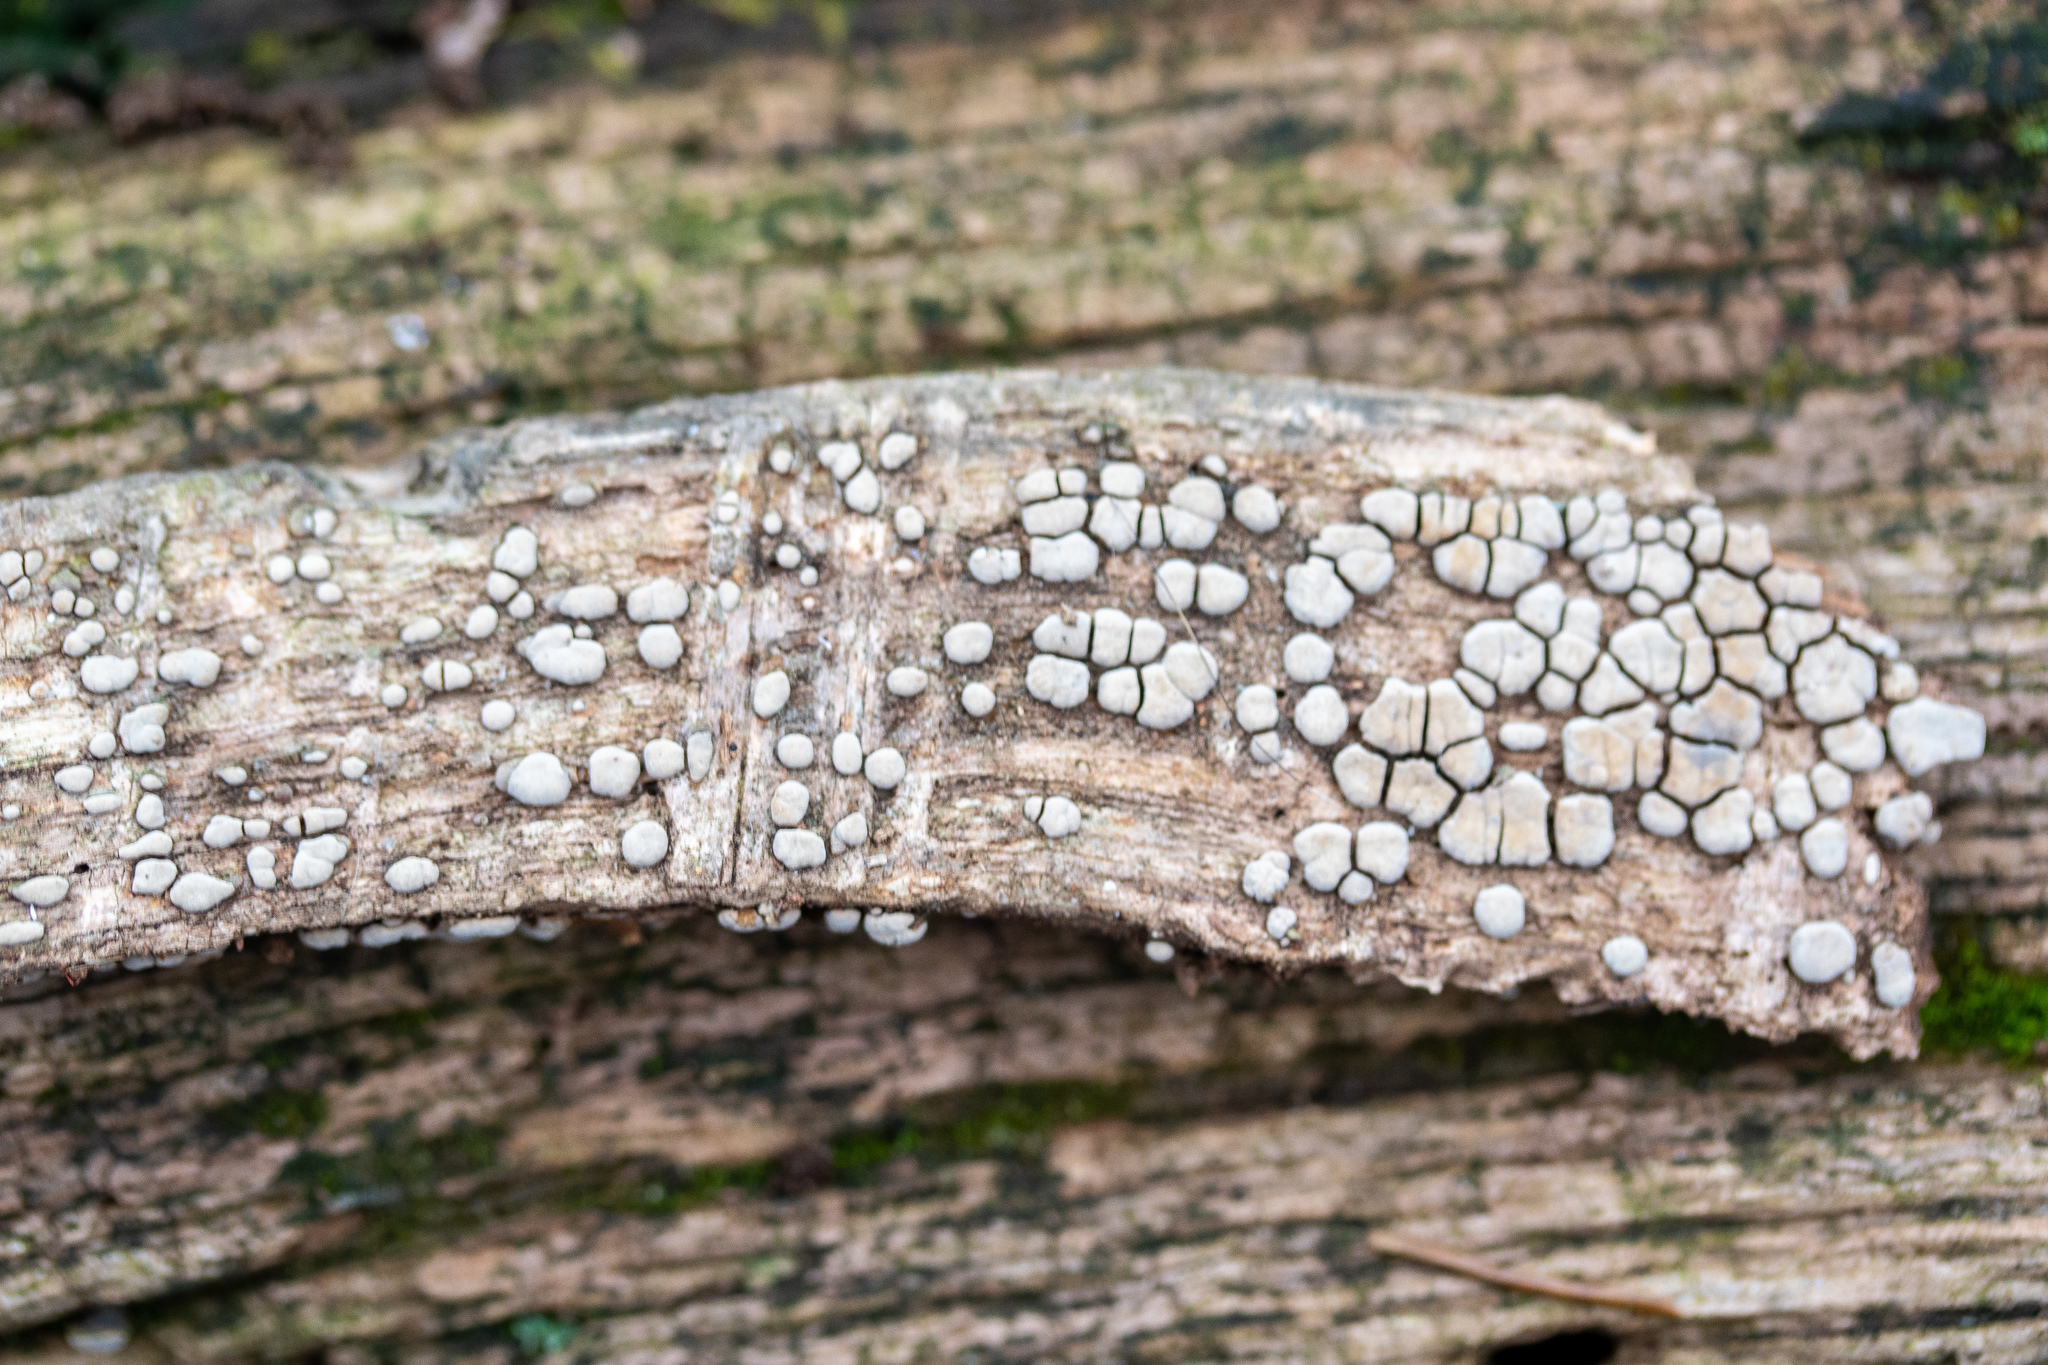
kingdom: Fungi
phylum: Basidiomycota
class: Agaricomycetes
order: Russulales
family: Stereaceae
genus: Xylobolus
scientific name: Xylobolus frustulatus
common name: Ceramic parchment
